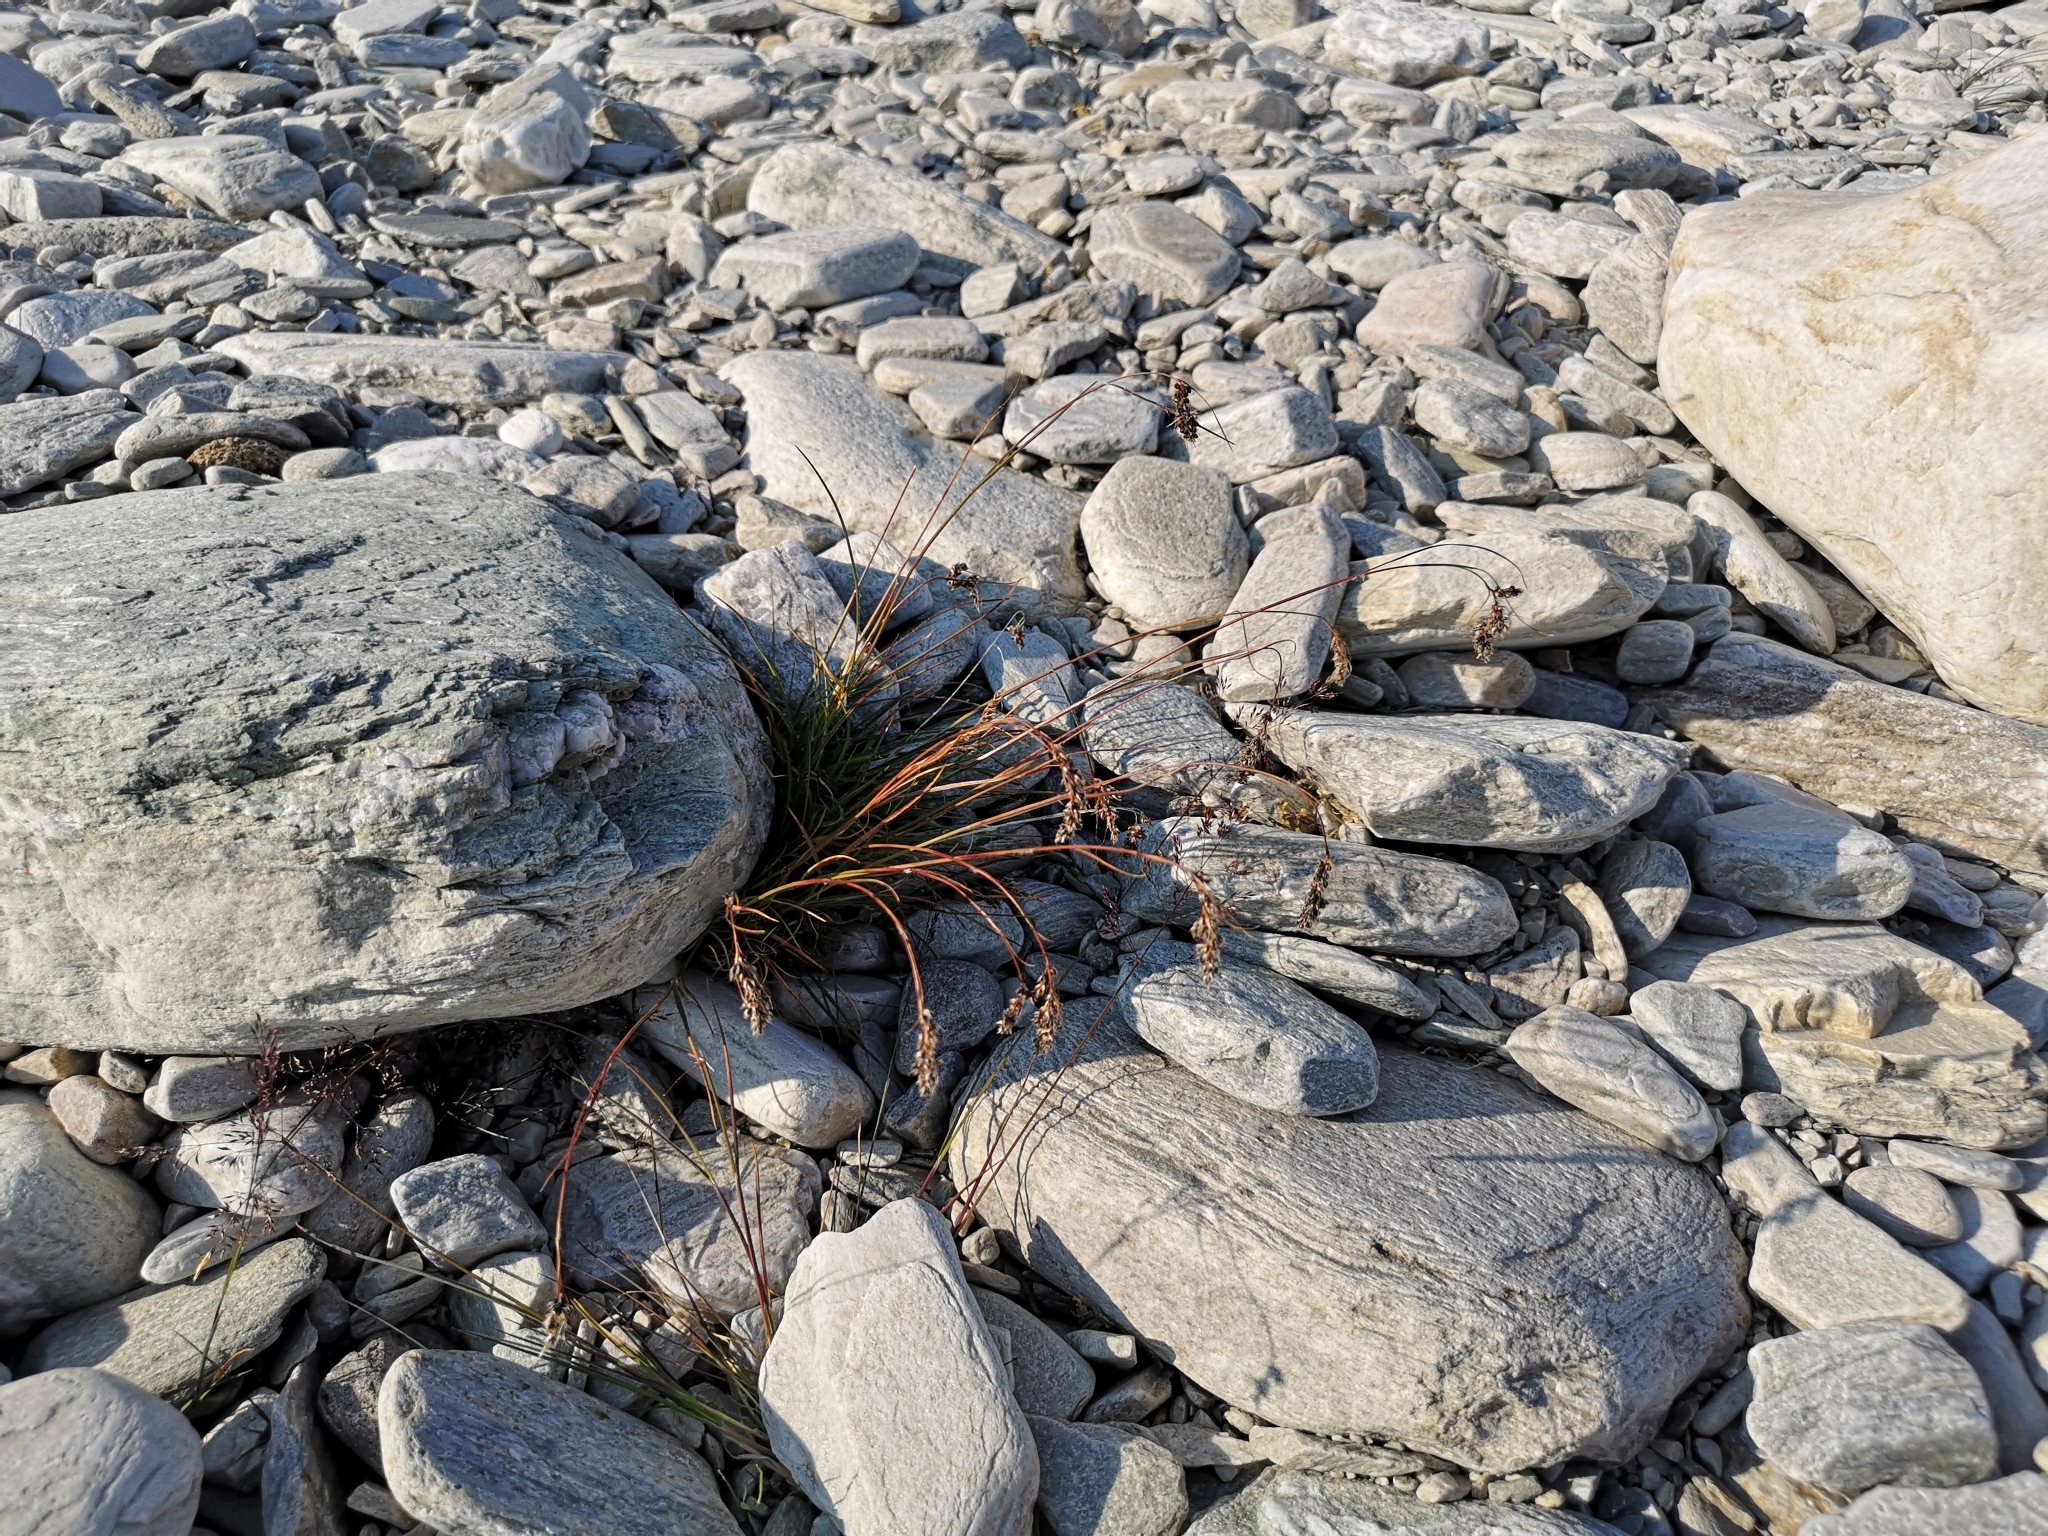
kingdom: Plantae
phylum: Tracheophyta
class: Liliopsida
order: Poales
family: Juncaceae
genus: Luzula
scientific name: Luzula spicata
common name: Spiked wood-rush
